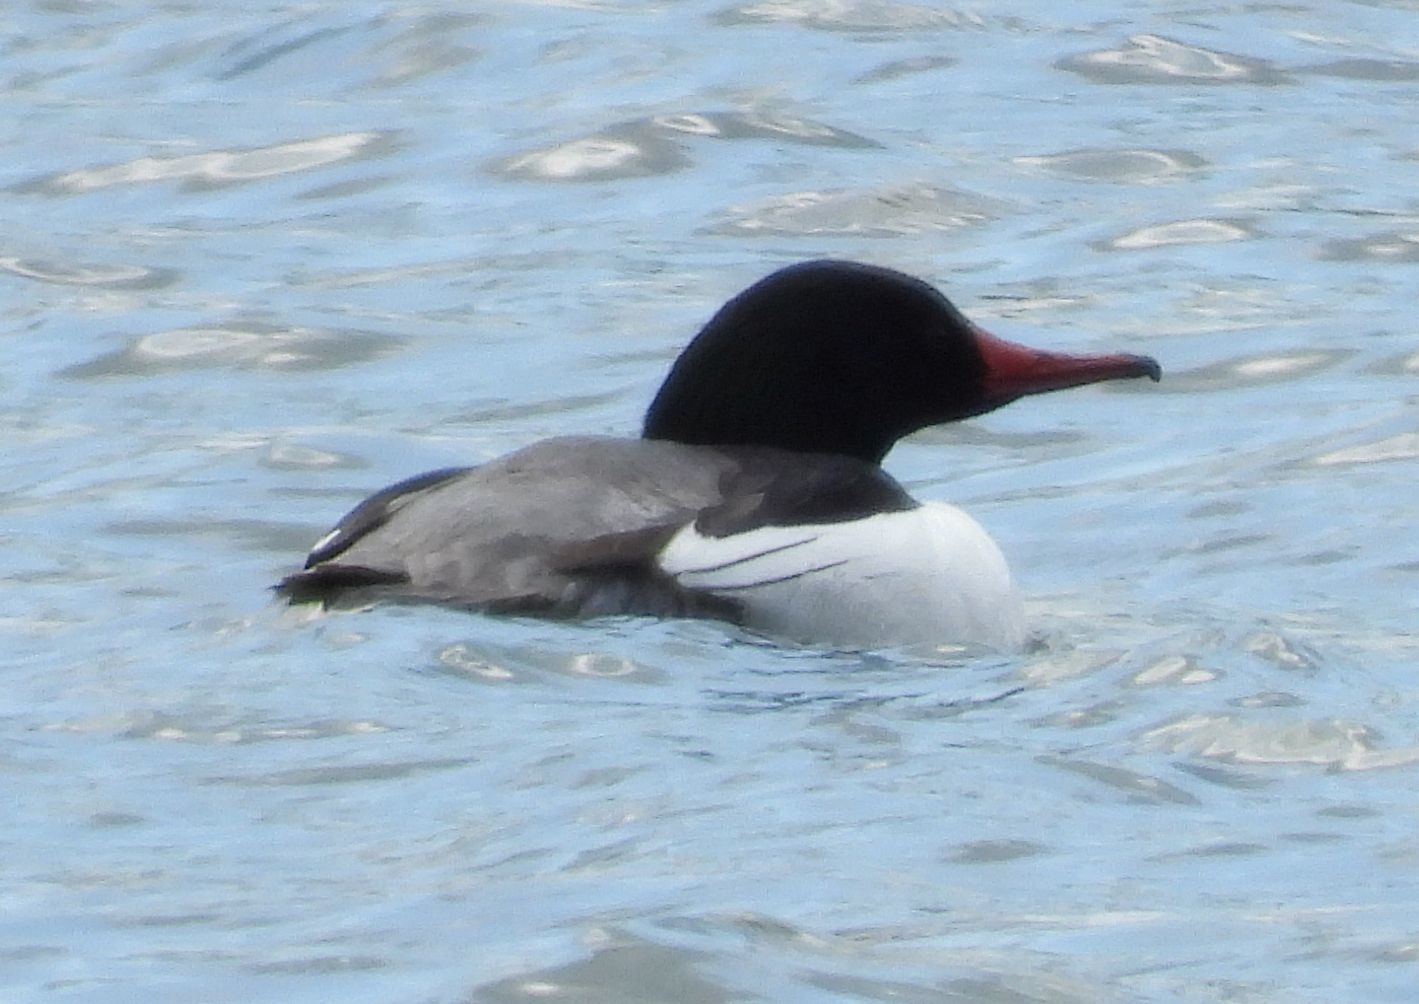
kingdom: Animalia
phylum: Chordata
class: Aves
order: Anseriformes
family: Anatidae
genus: Mergus
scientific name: Mergus merganser
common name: Common merganser
